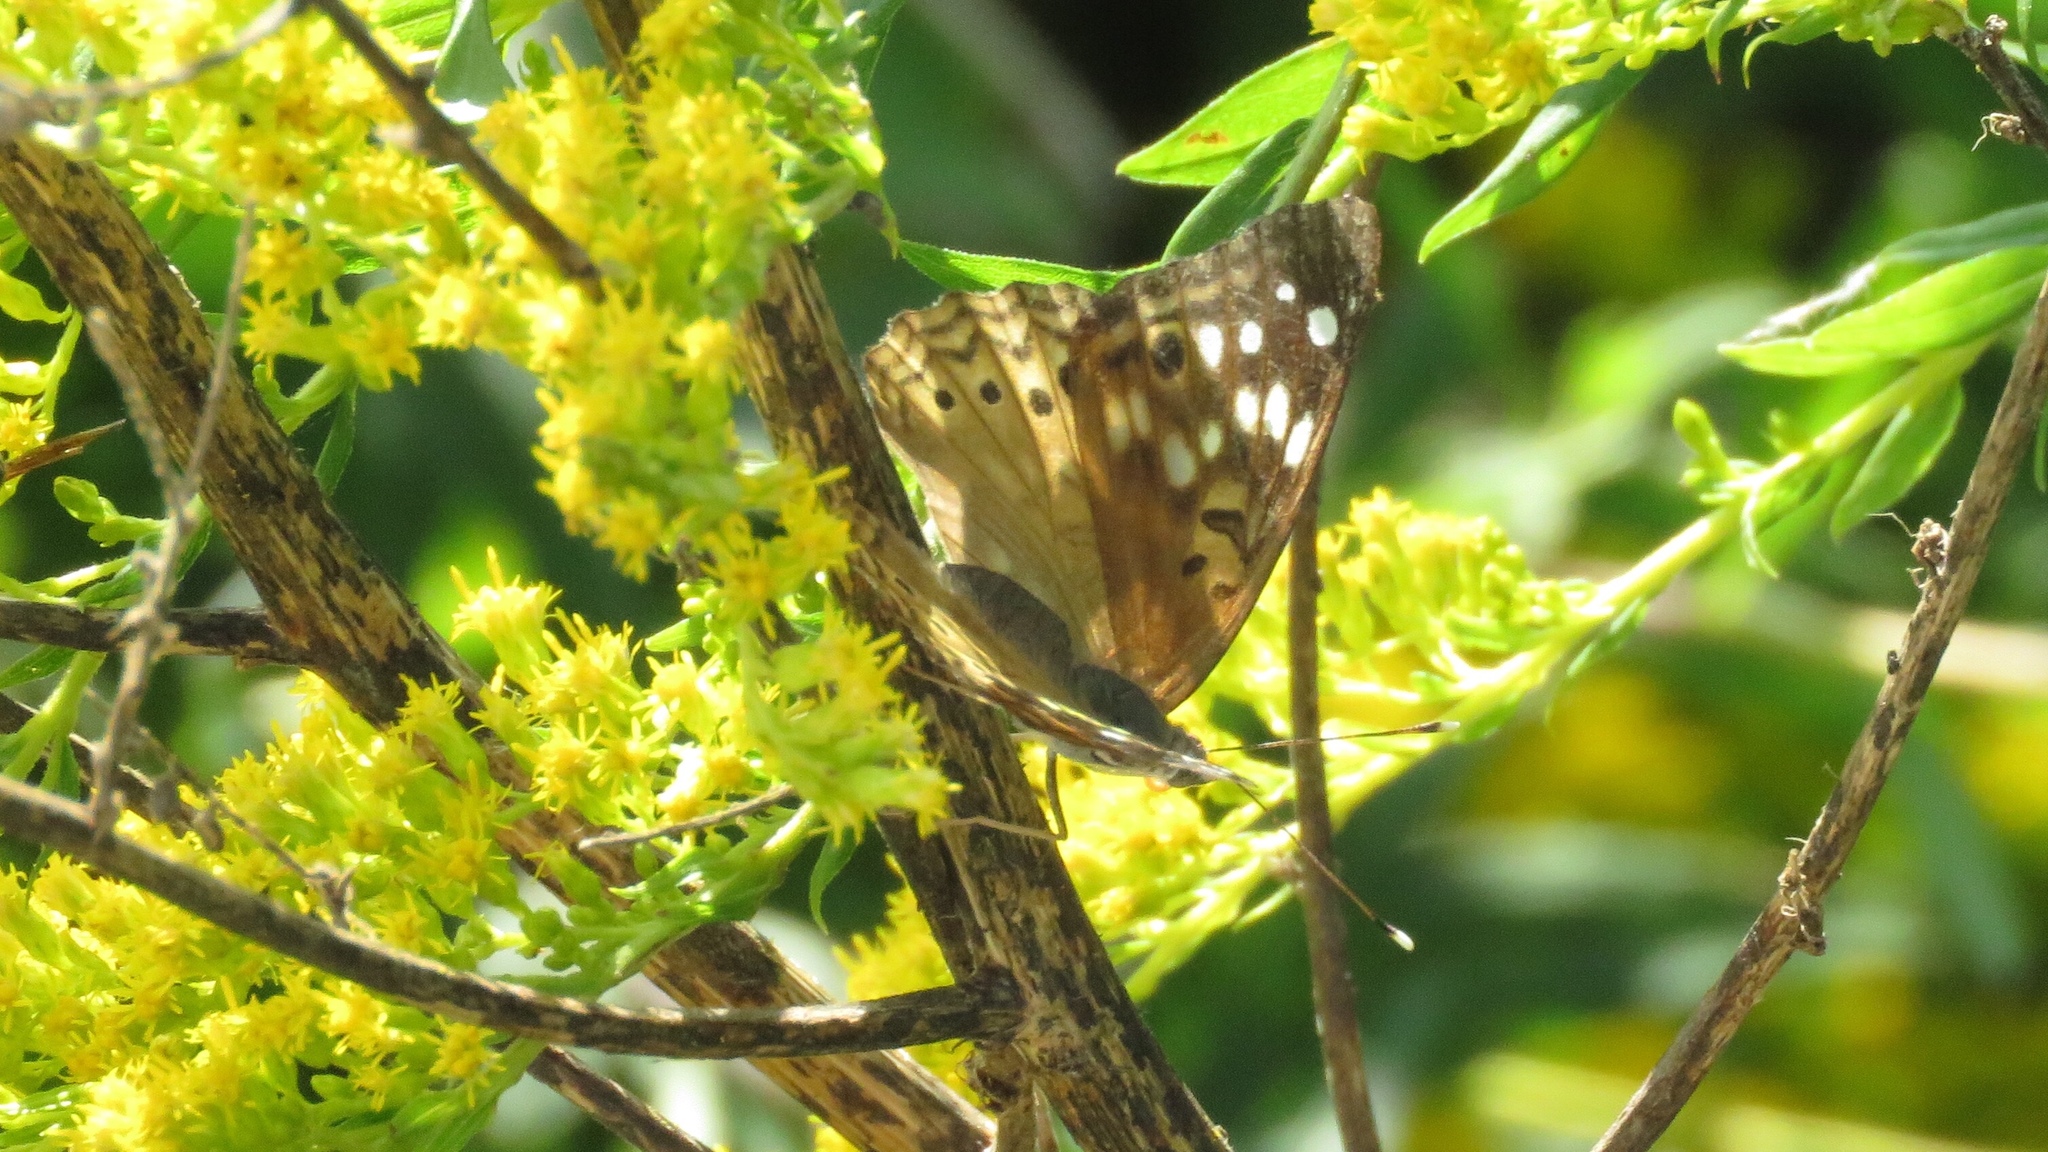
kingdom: Animalia
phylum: Arthropoda
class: Insecta
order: Lepidoptera
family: Nymphalidae
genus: Asterocampa
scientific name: Asterocampa celtis
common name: Hackberry emperor
